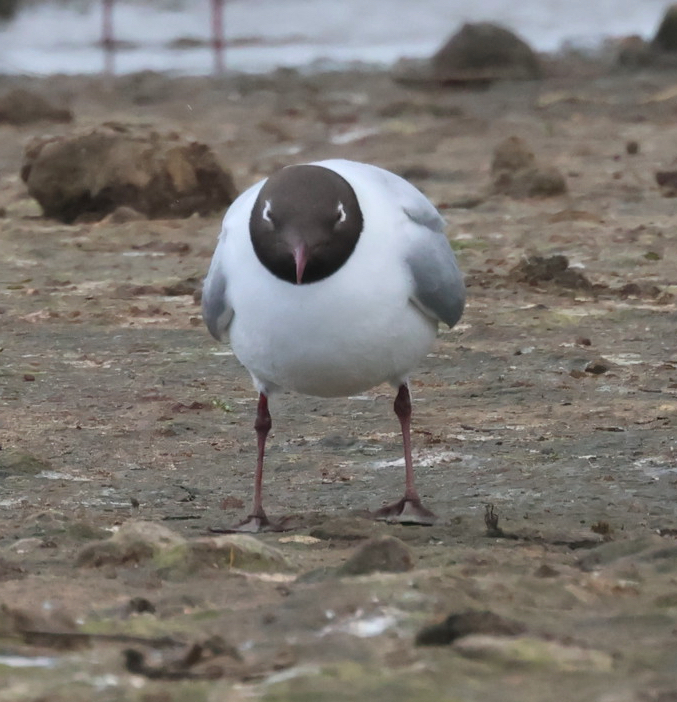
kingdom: Animalia
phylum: Chordata
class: Aves
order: Charadriiformes
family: Laridae
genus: Chroicocephalus
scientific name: Chroicocephalus ridibundus
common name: Black-headed gull
